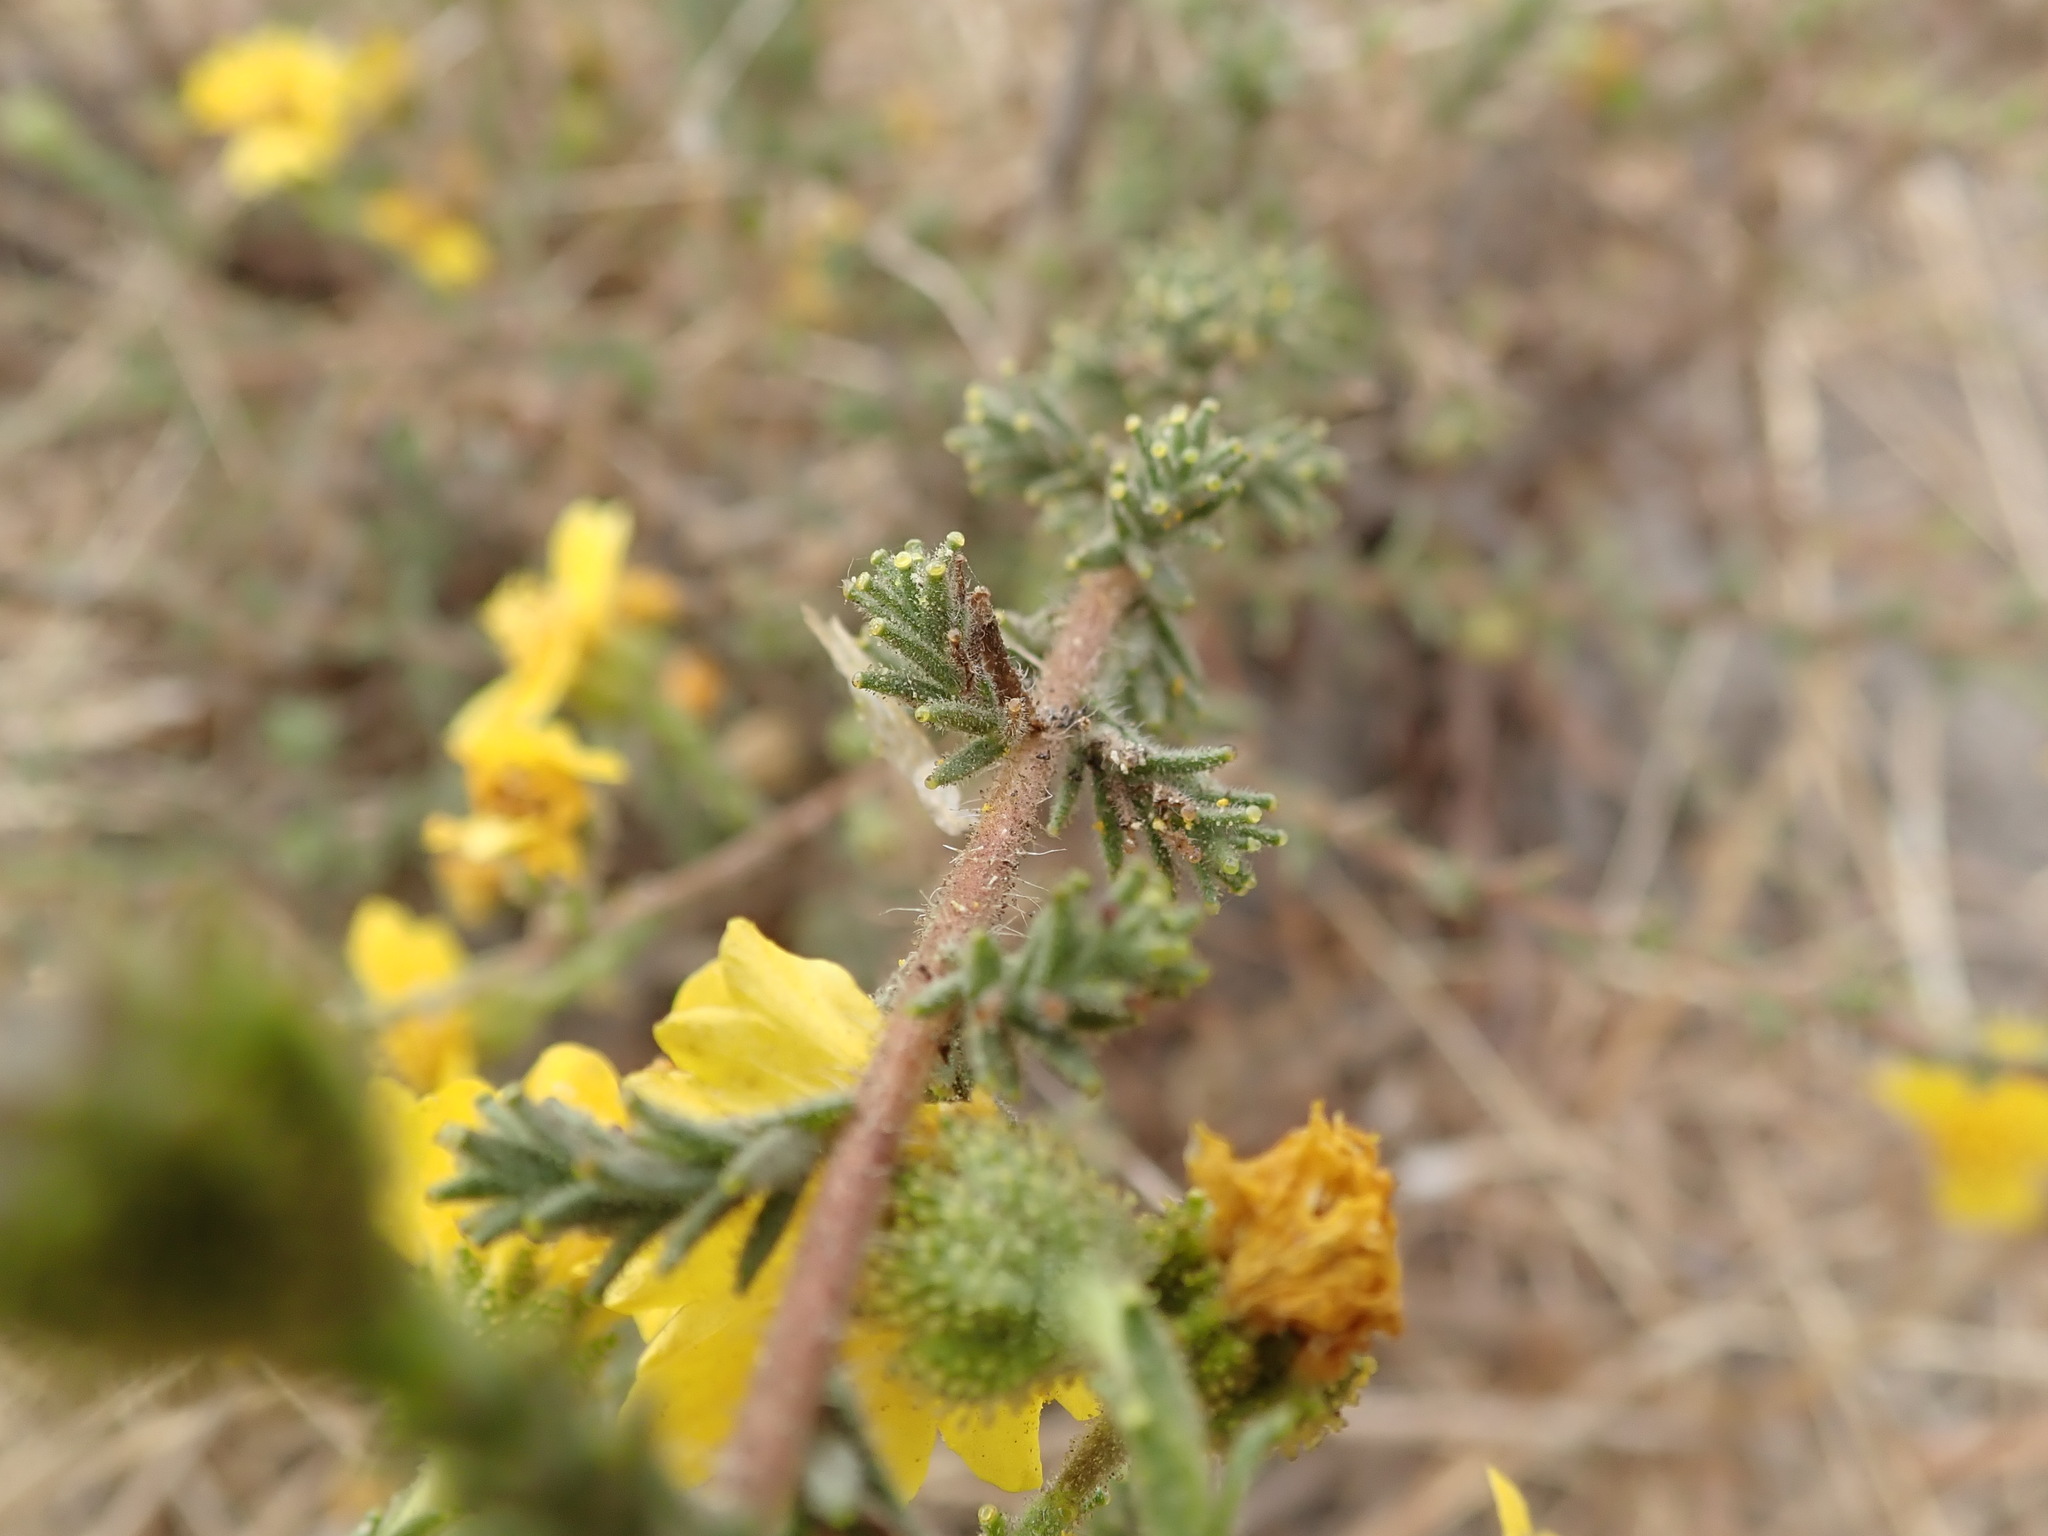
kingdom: Plantae
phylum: Tracheophyta
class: Magnoliopsida
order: Asterales
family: Asteraceae
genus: Holocarpha
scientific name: Holocarpha heermannii
